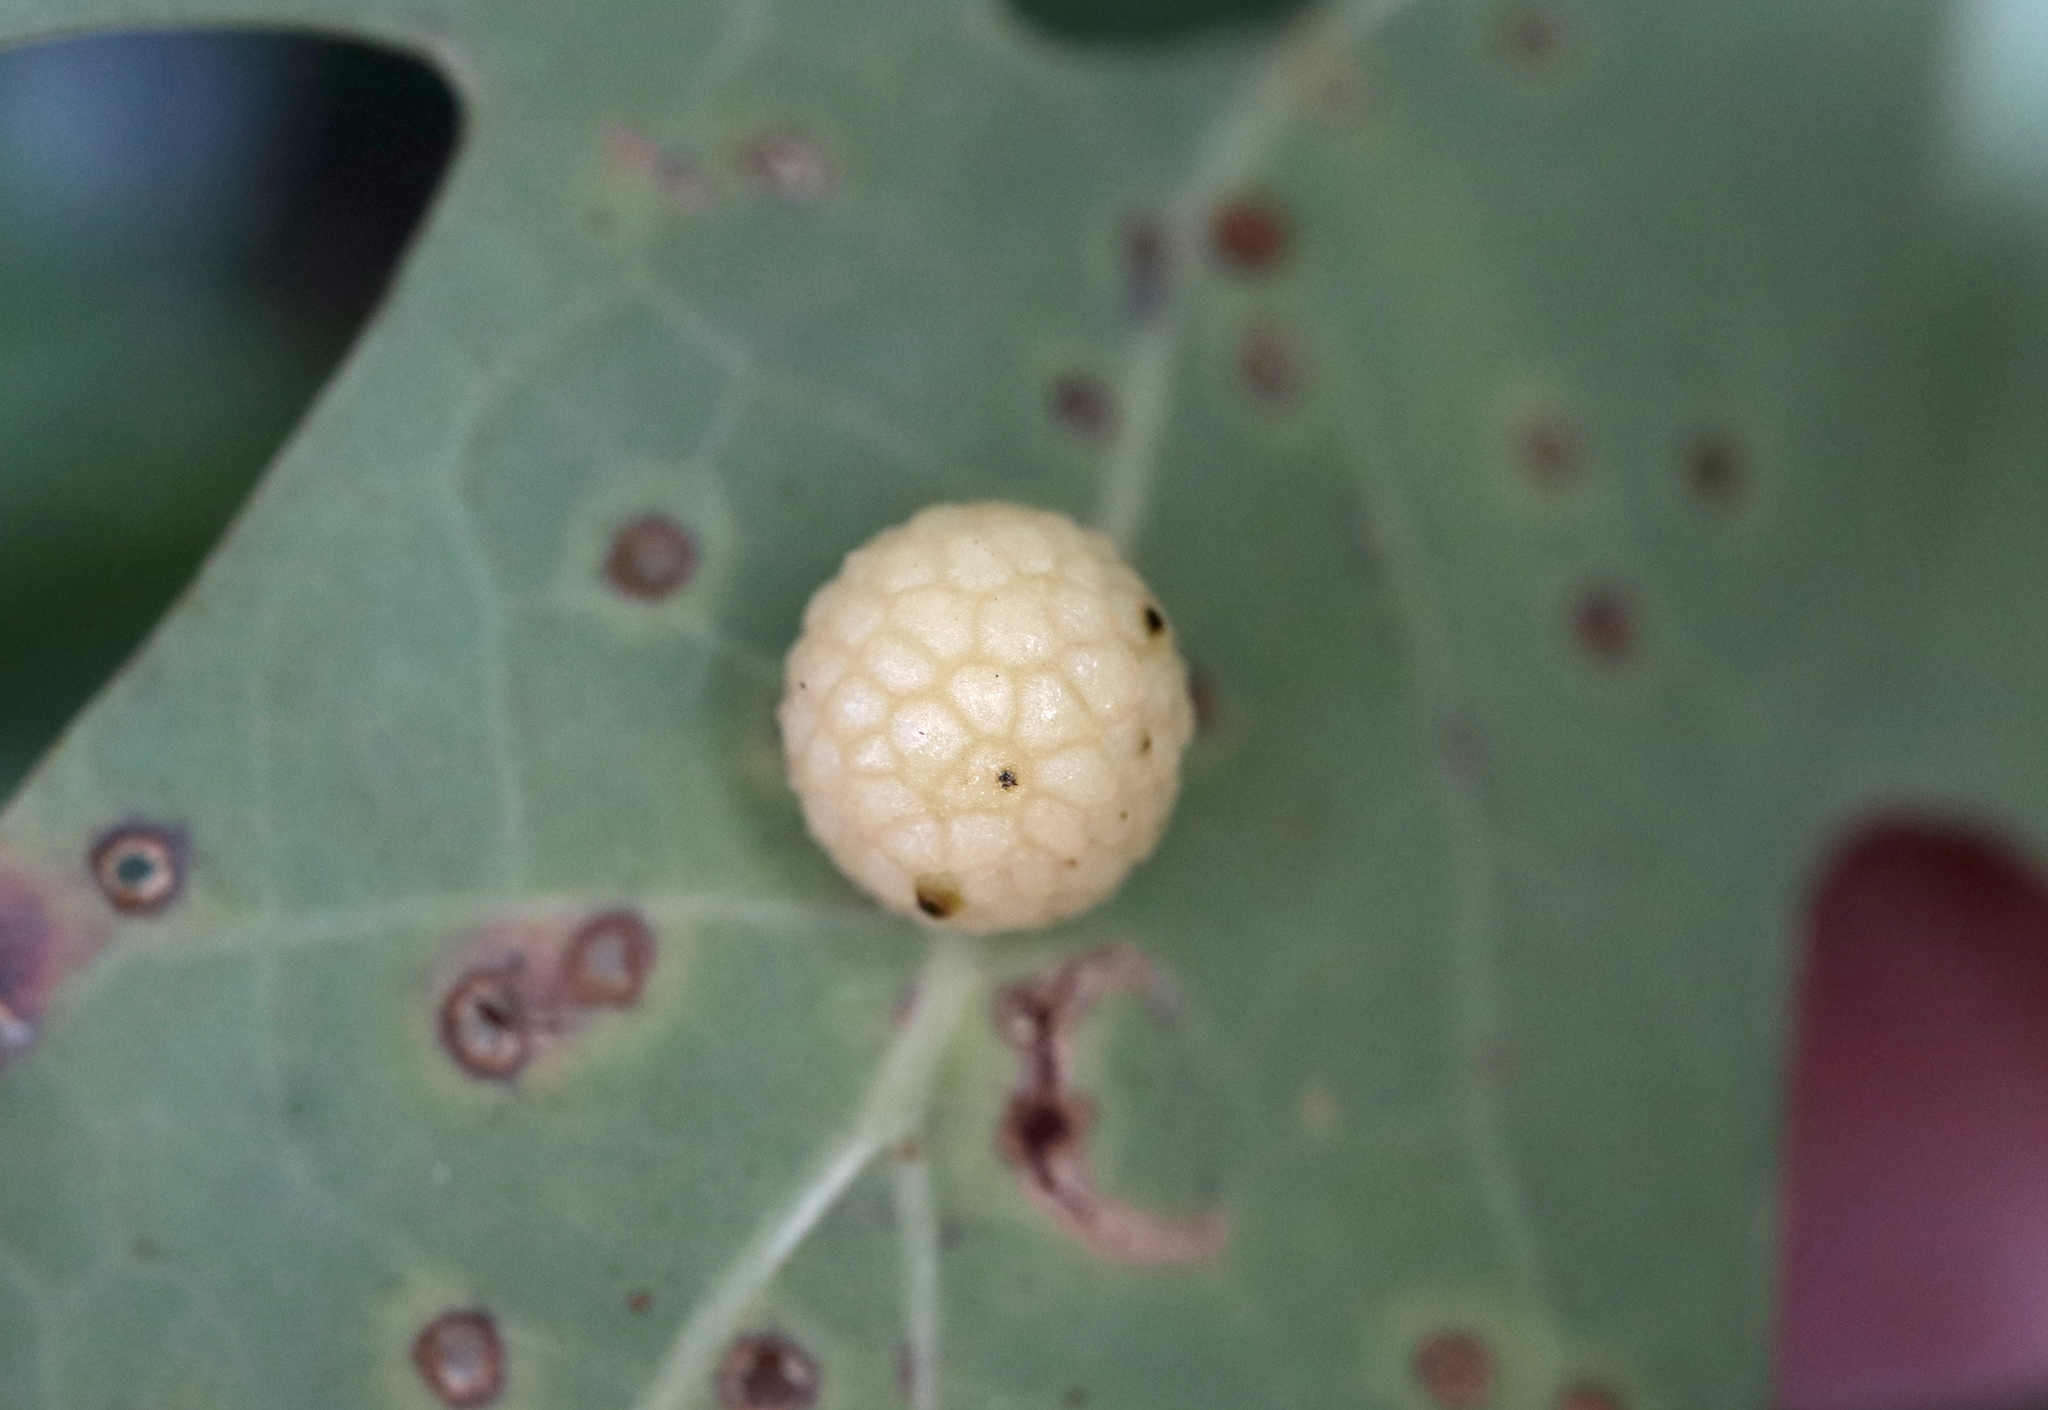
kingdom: Animalia
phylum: Arthropoda
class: Insecta
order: Hymenoptera
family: Cynipidae
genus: Acraspis
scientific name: Acraspis
